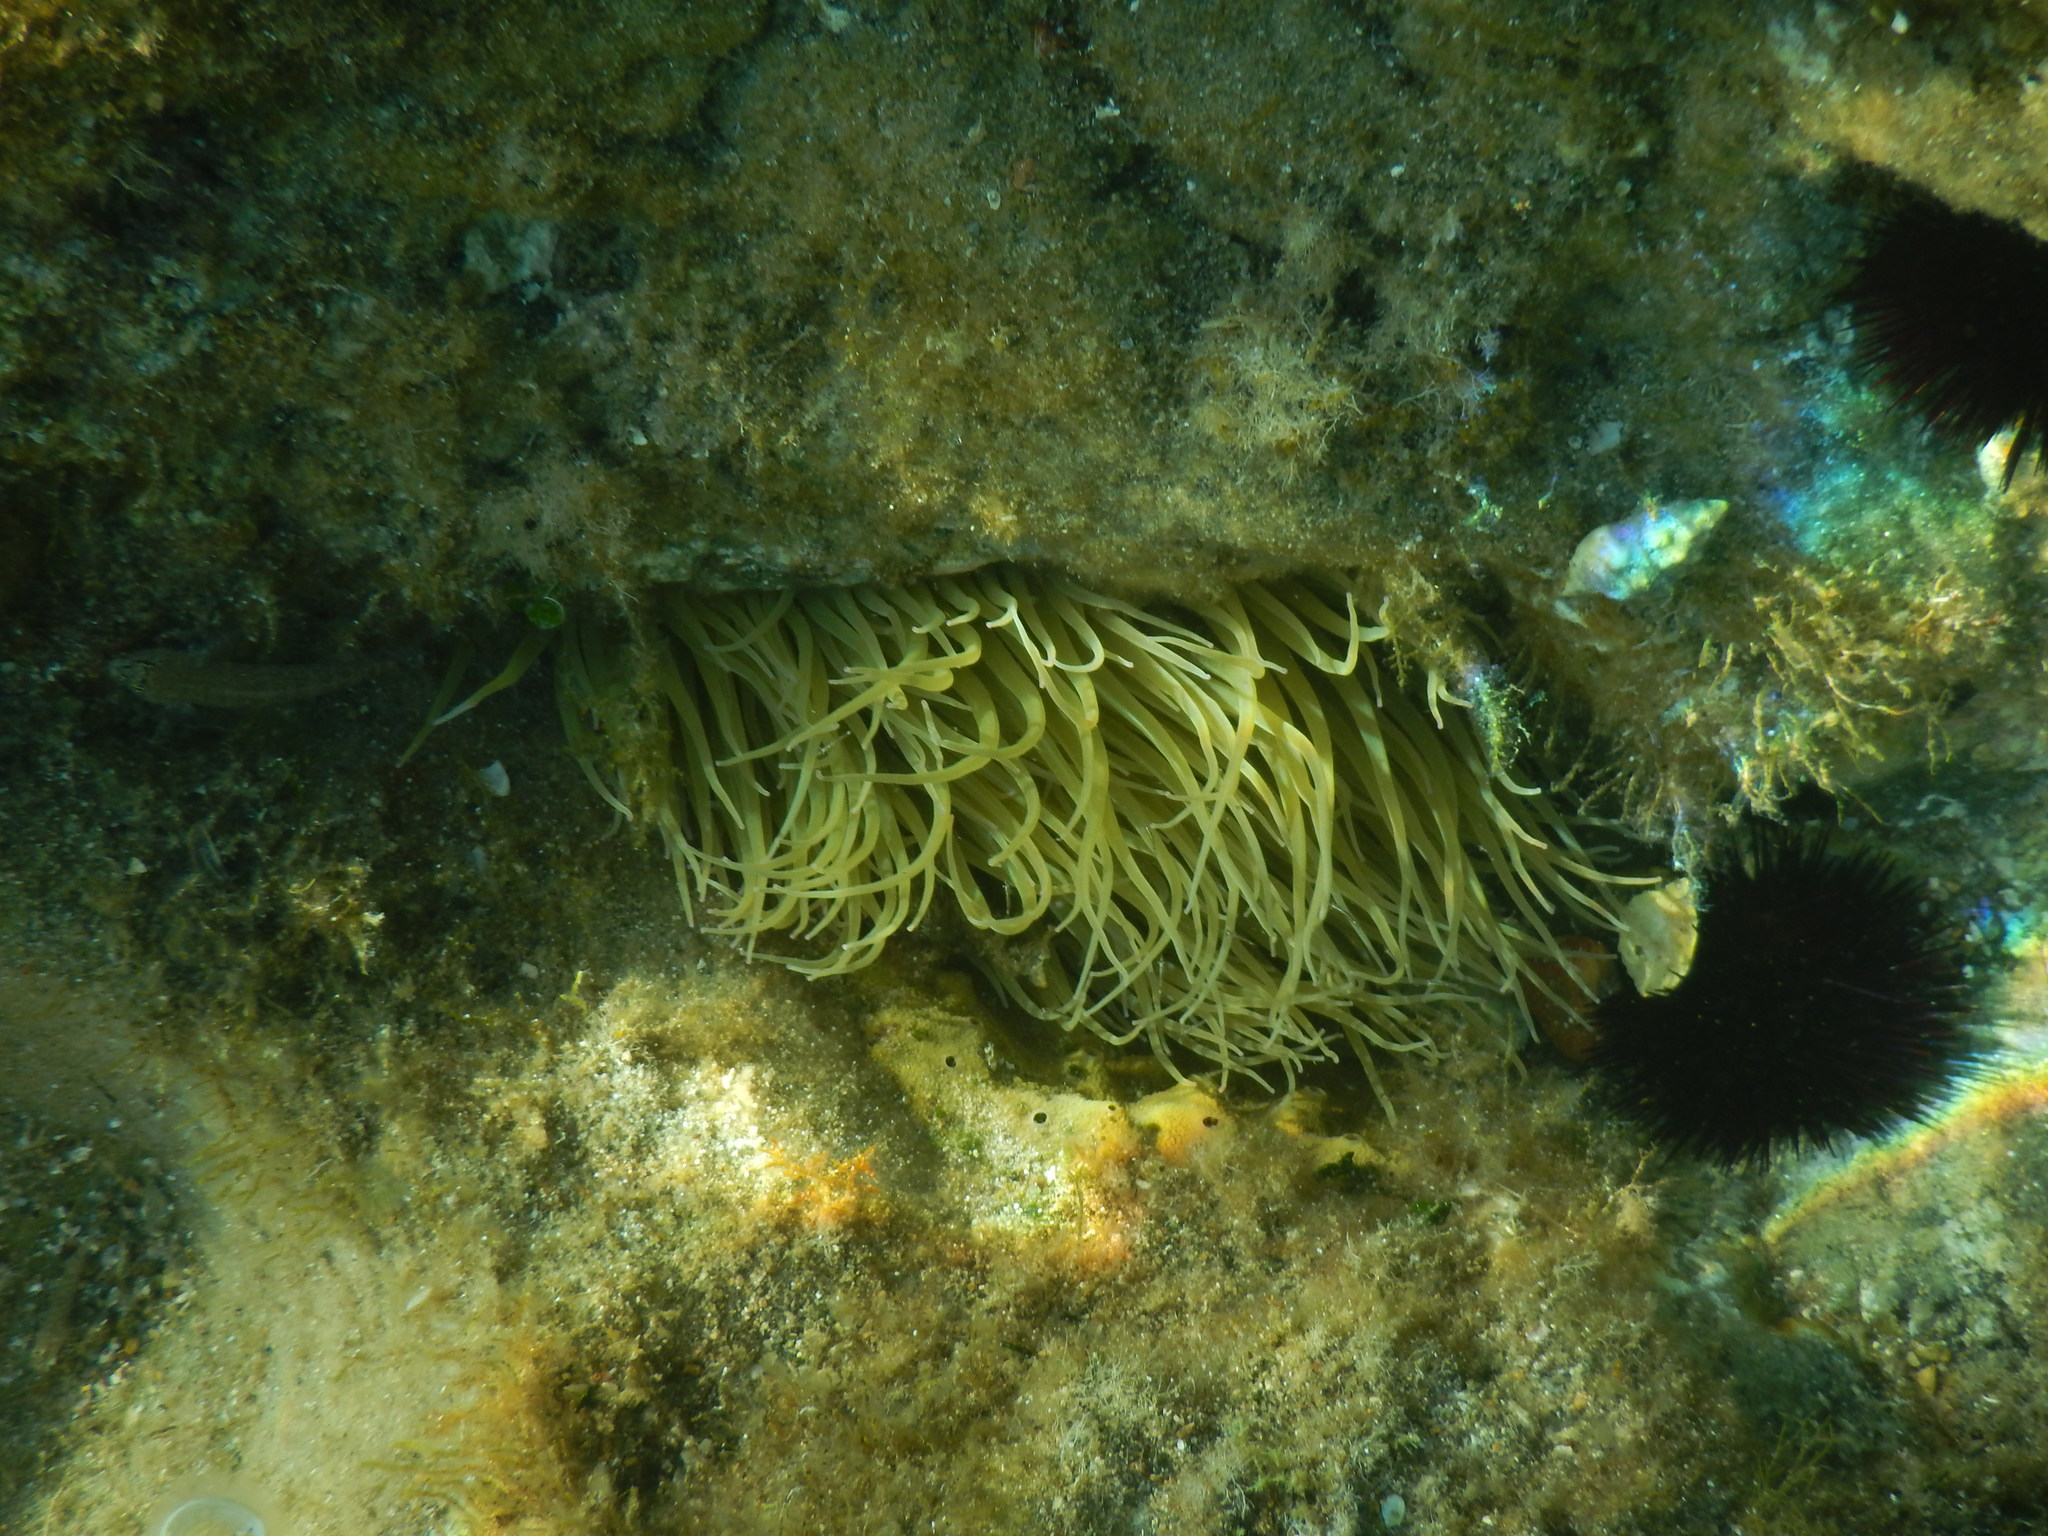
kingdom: Animalia
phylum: Cnidaria
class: Anthozoa
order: Actiniaria
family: Actiniidae
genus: Anemonia
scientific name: Anemonia viridis
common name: Snakelocks anemone
